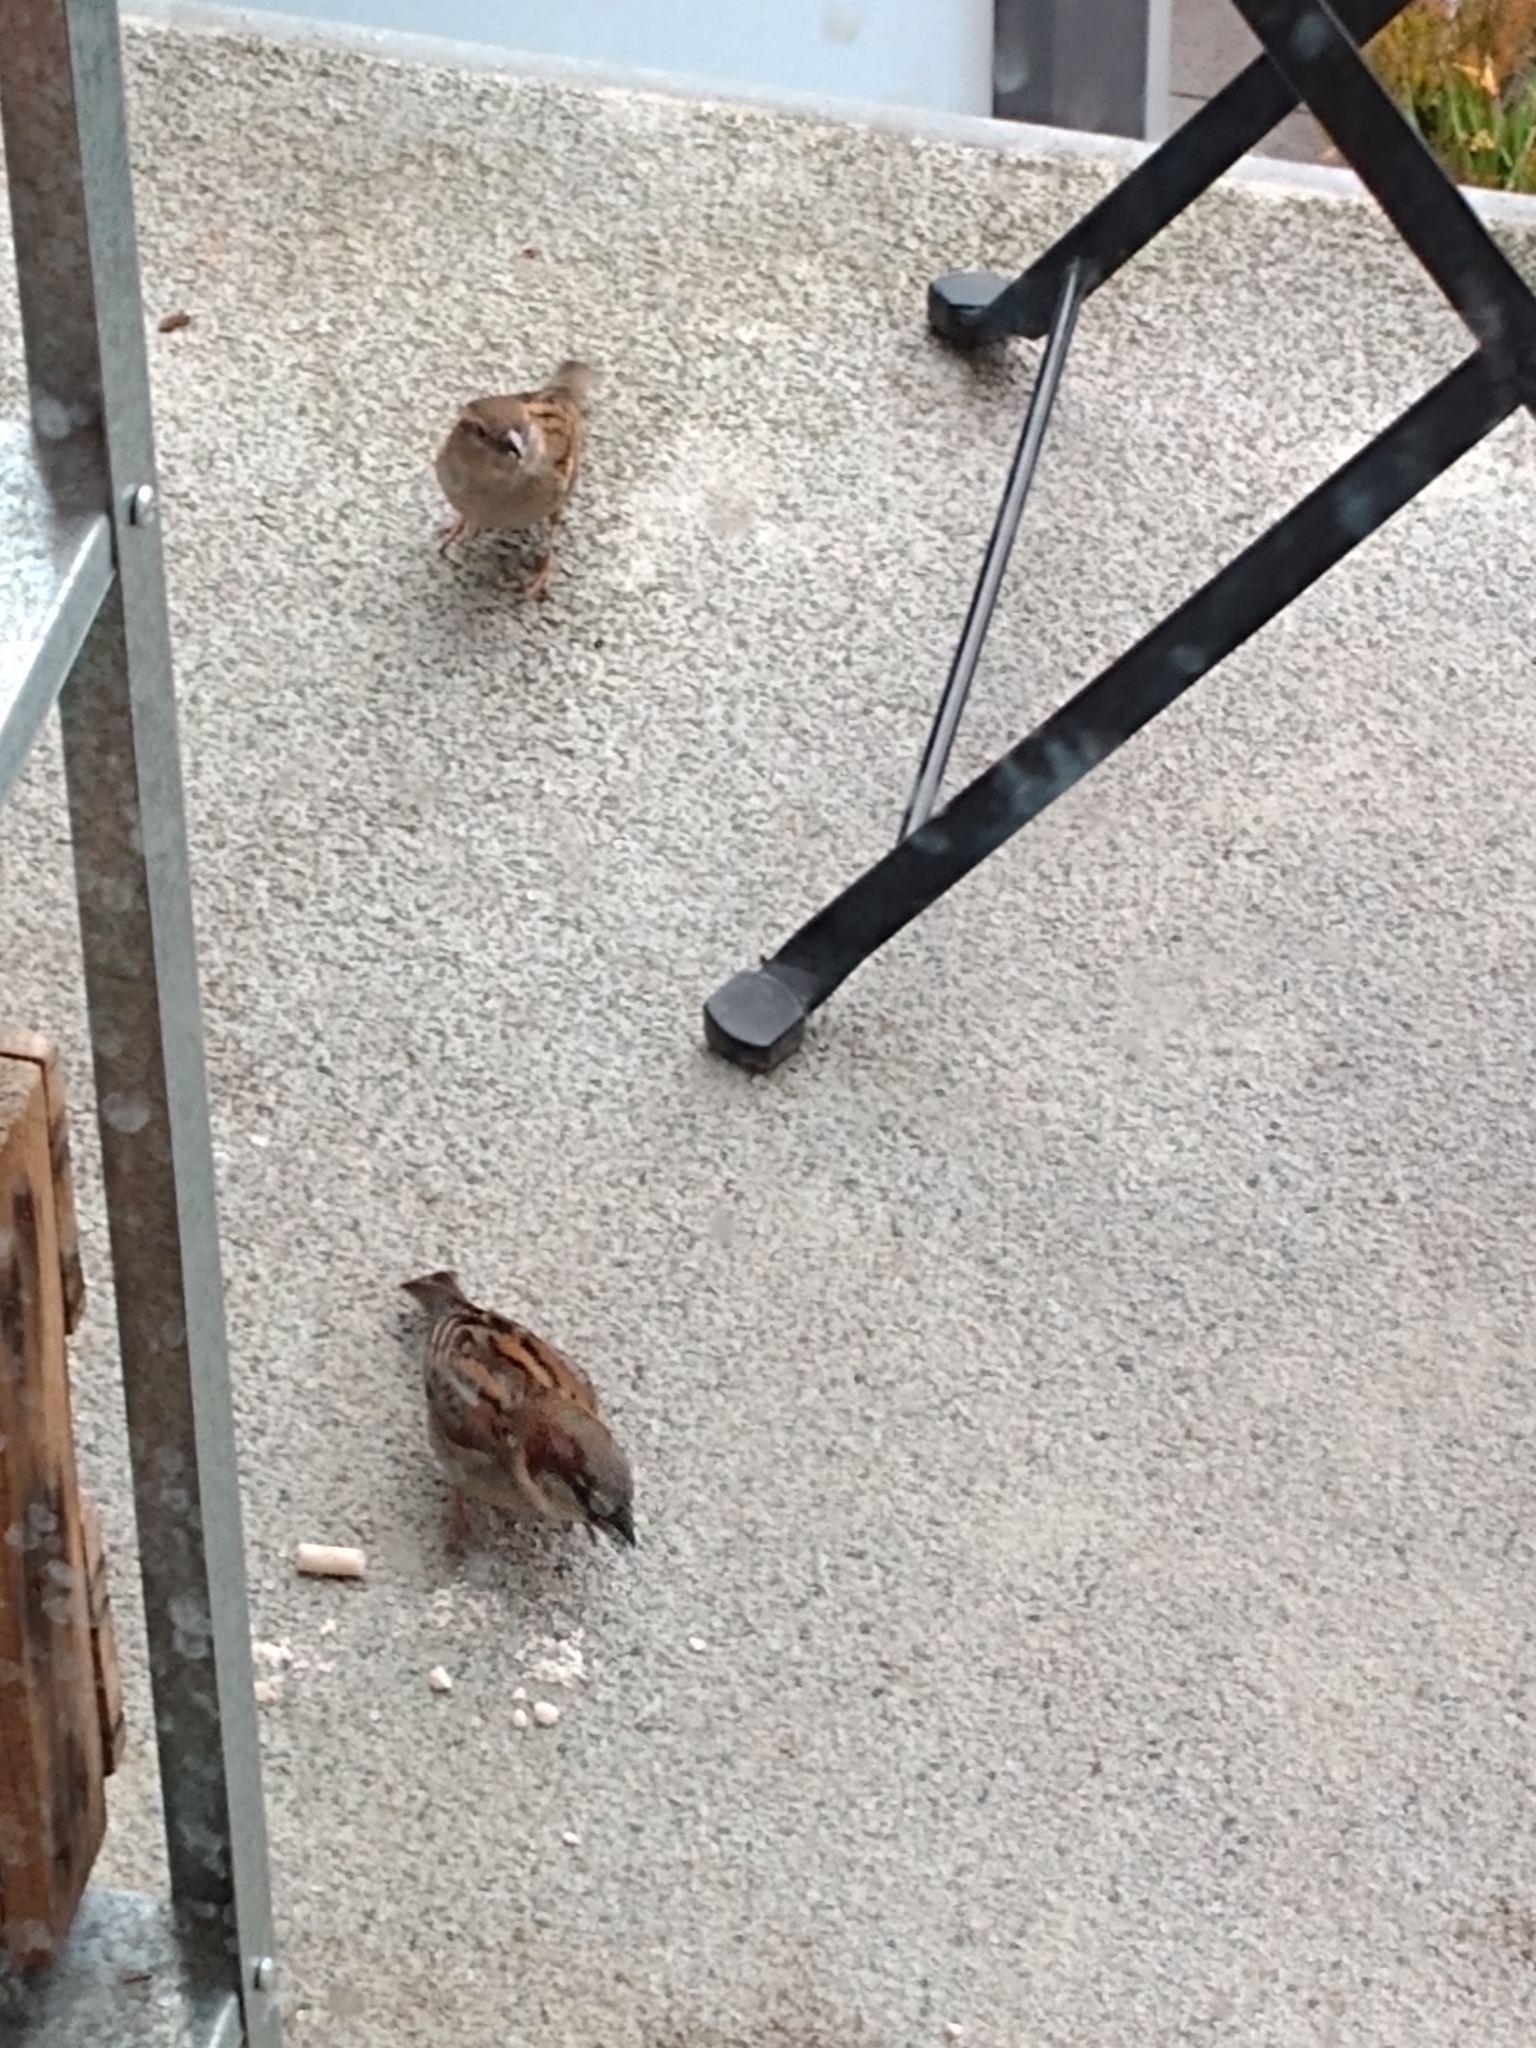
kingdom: Animalia
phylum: Chordata
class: Aves
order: Passeriformes
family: Passeridae
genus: Passer
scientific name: Passer domesticus
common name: House sparrow
